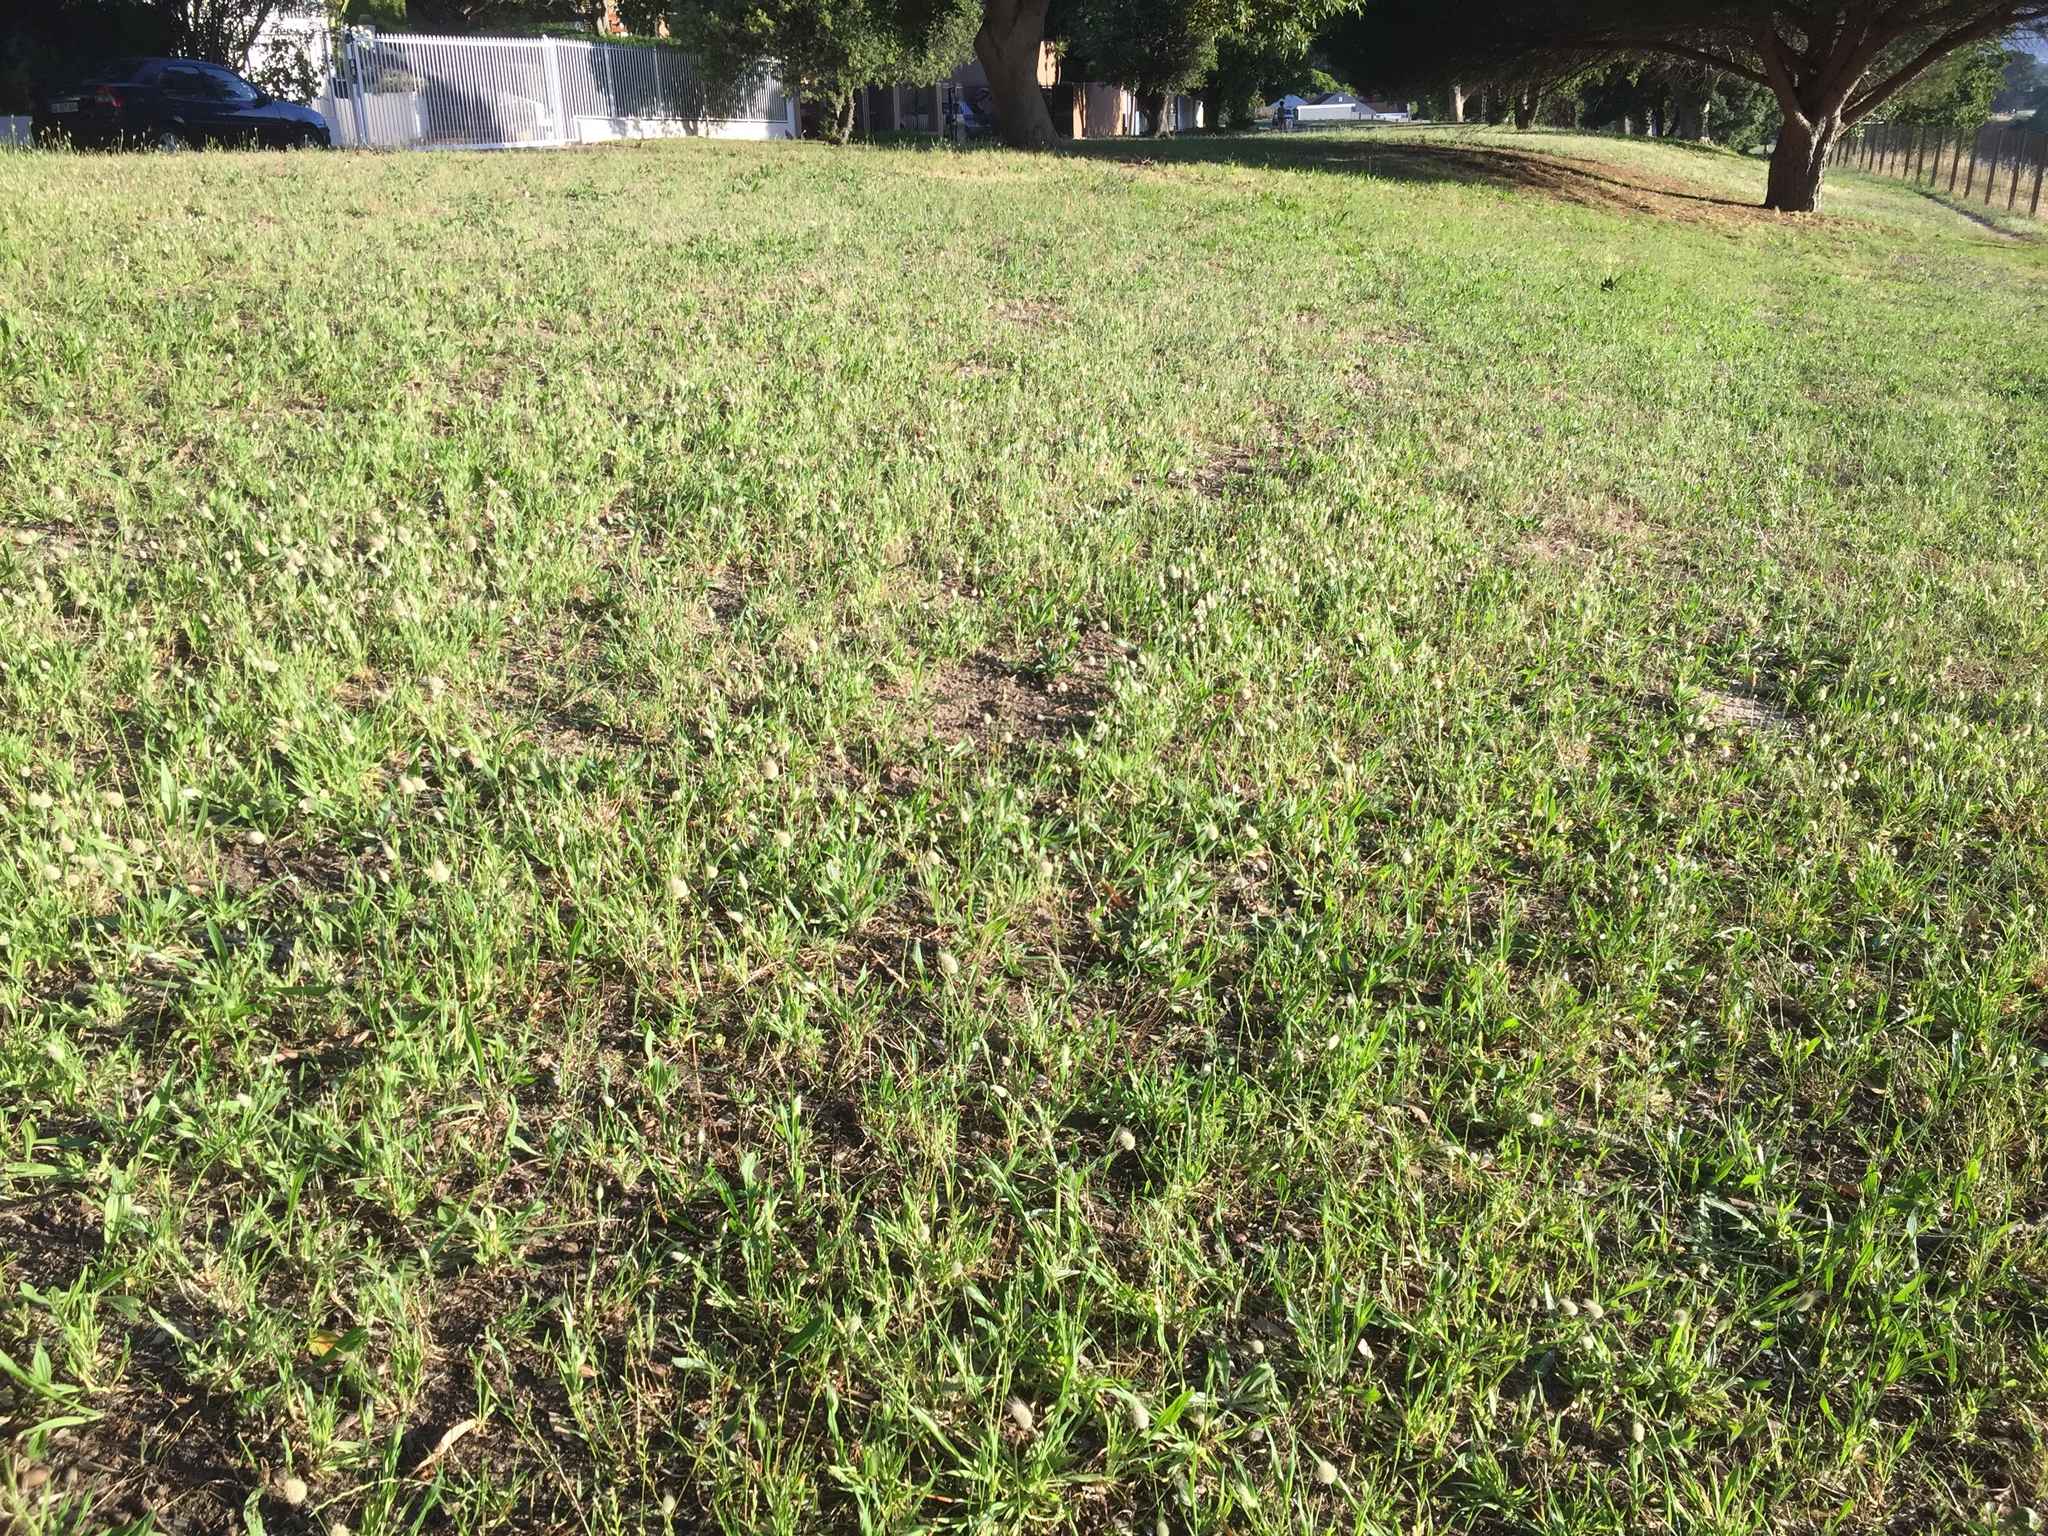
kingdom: Plantae
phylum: Tracheophyta
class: Liliopsida
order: Poales
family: Poaceae
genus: Lagurus
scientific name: Lagurus ovatus
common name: Hare's-tail
